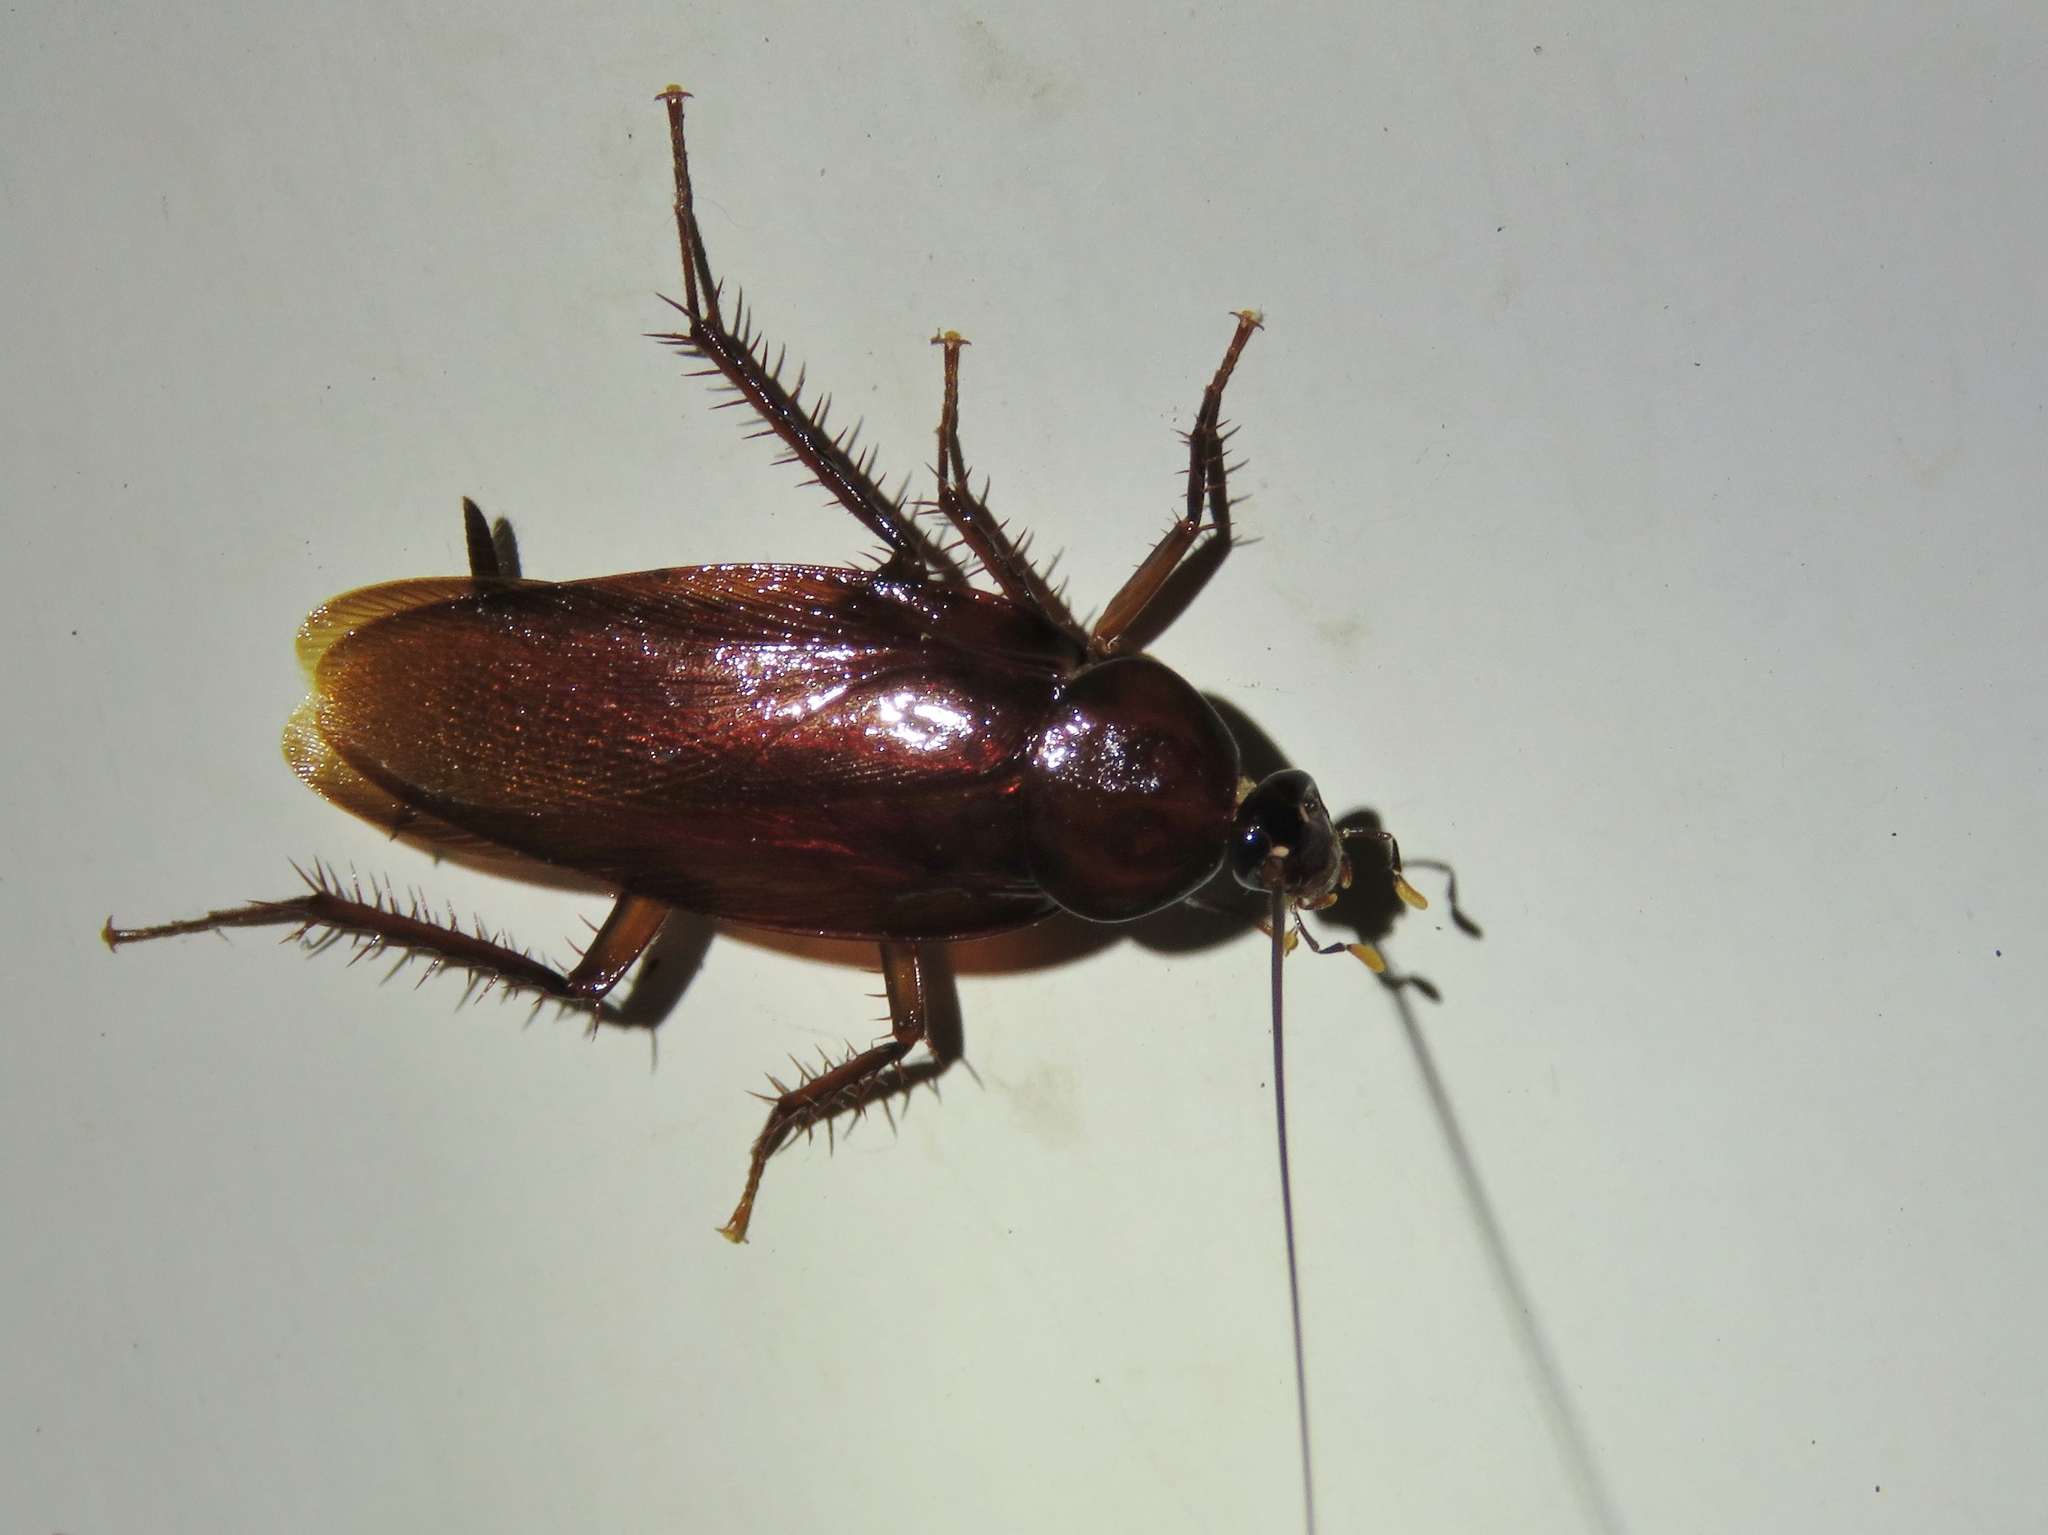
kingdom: Animalia
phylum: Arthropoda
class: Insecta
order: Blattodea
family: Blattidae
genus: Periplaneta
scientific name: Periplaneta fuliginosa
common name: Smokeybrown cockroad
